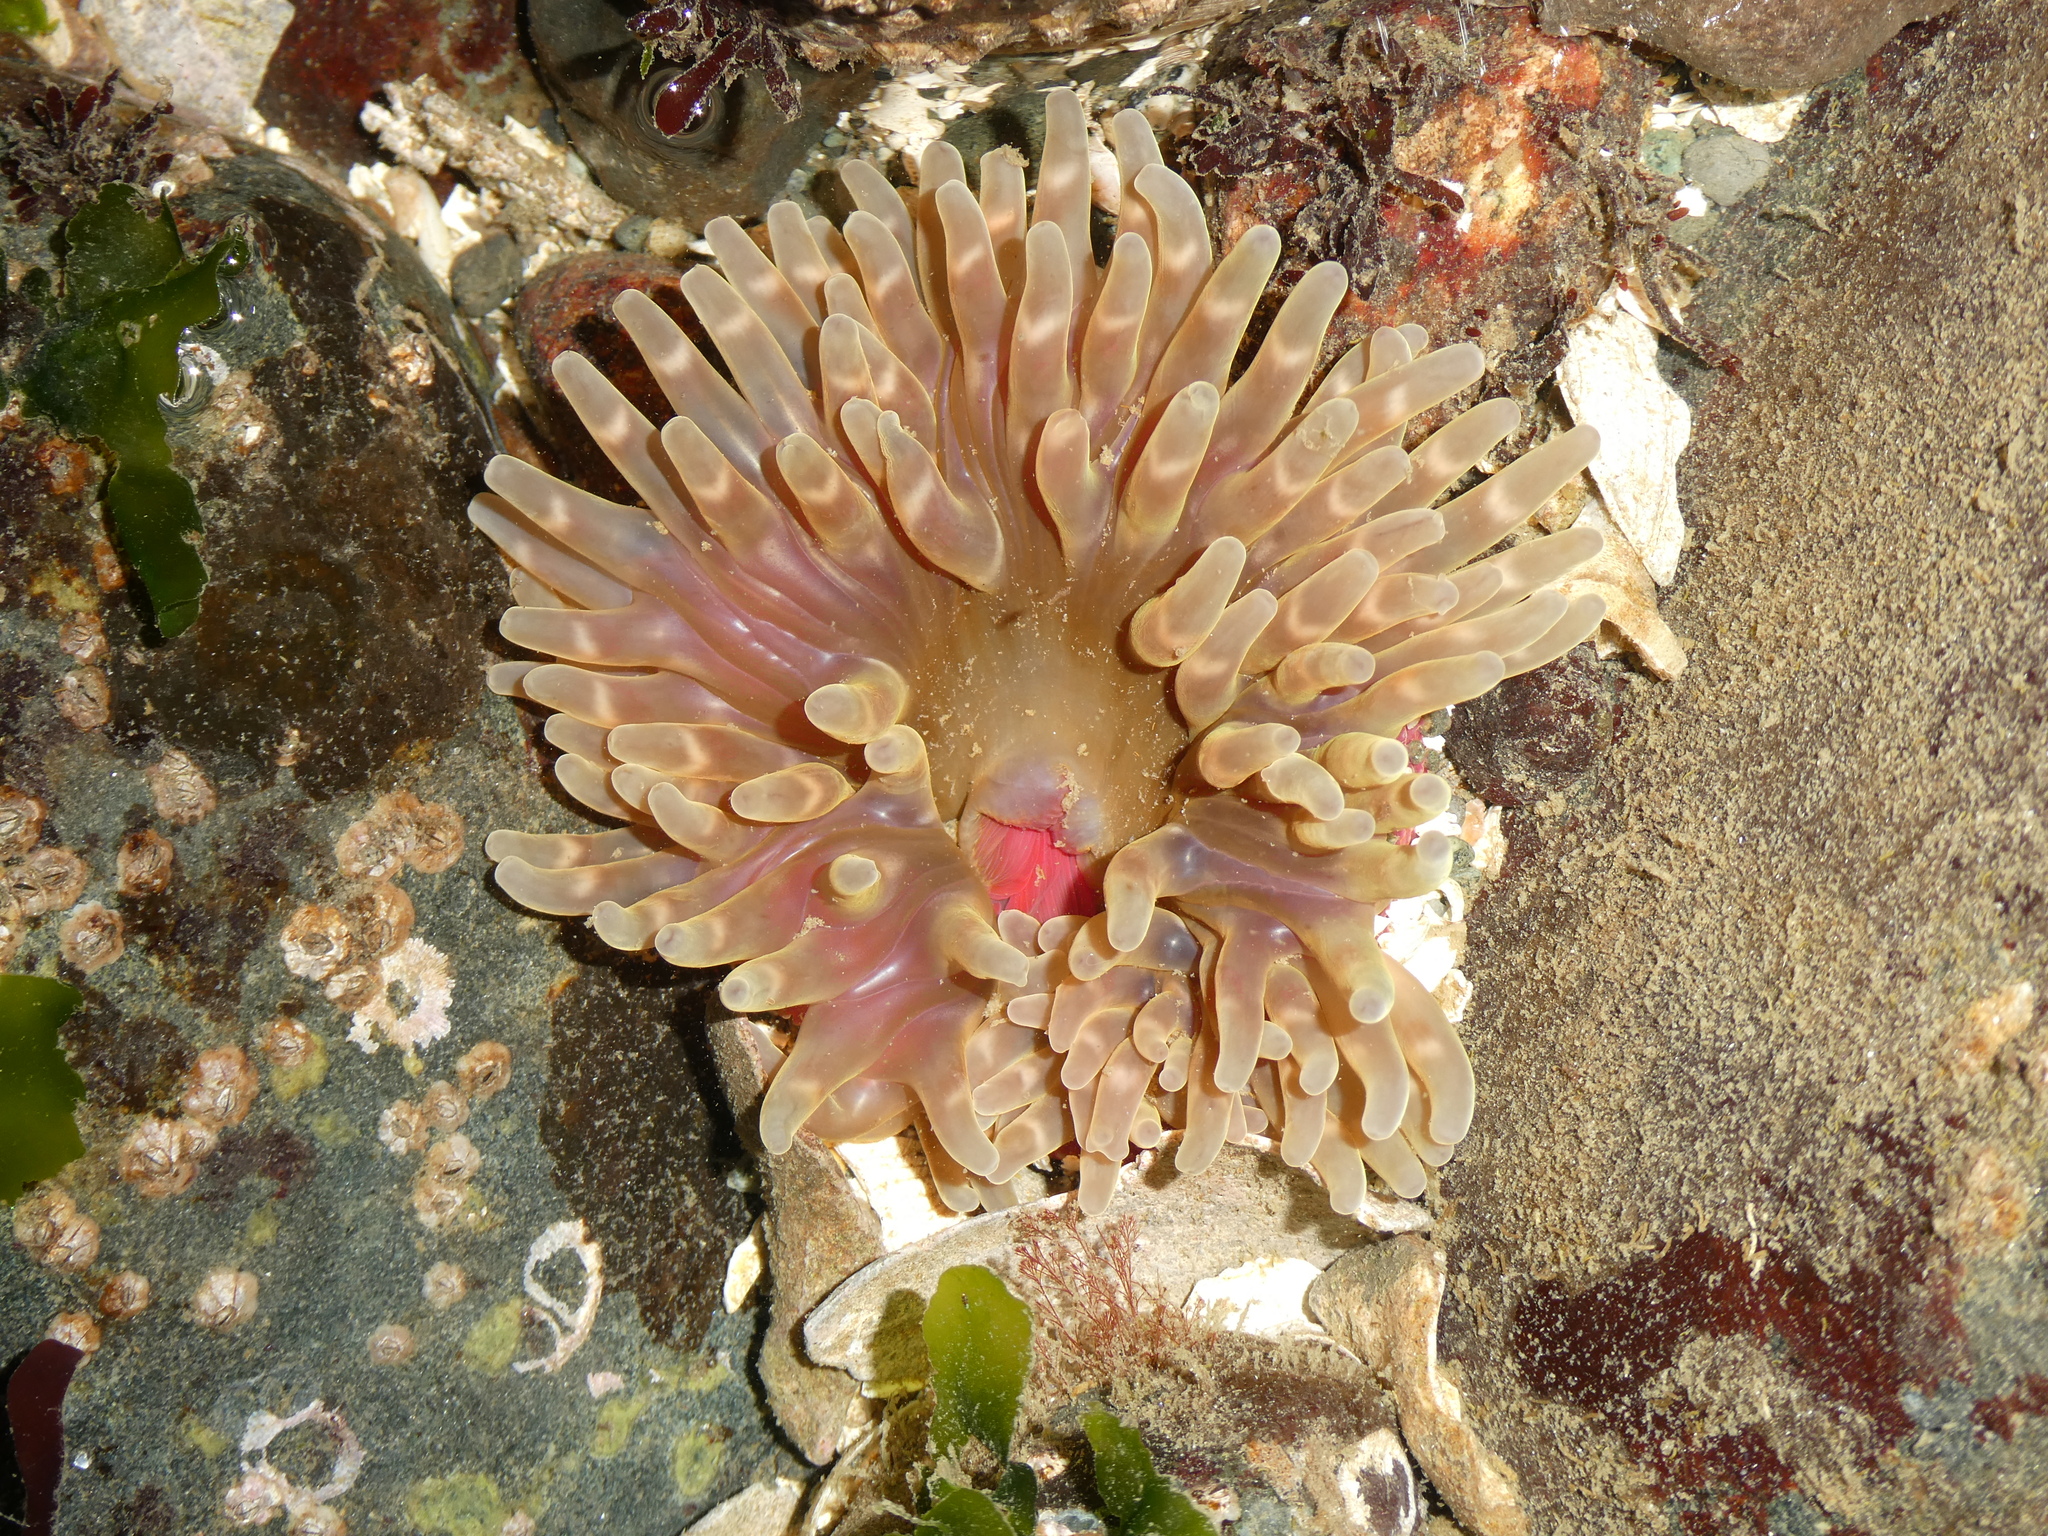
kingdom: Animalia
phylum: Cnidaria
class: Anthozoa
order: Actiniaria
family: Actiniidae
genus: Urticina
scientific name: Urticina clandestina
